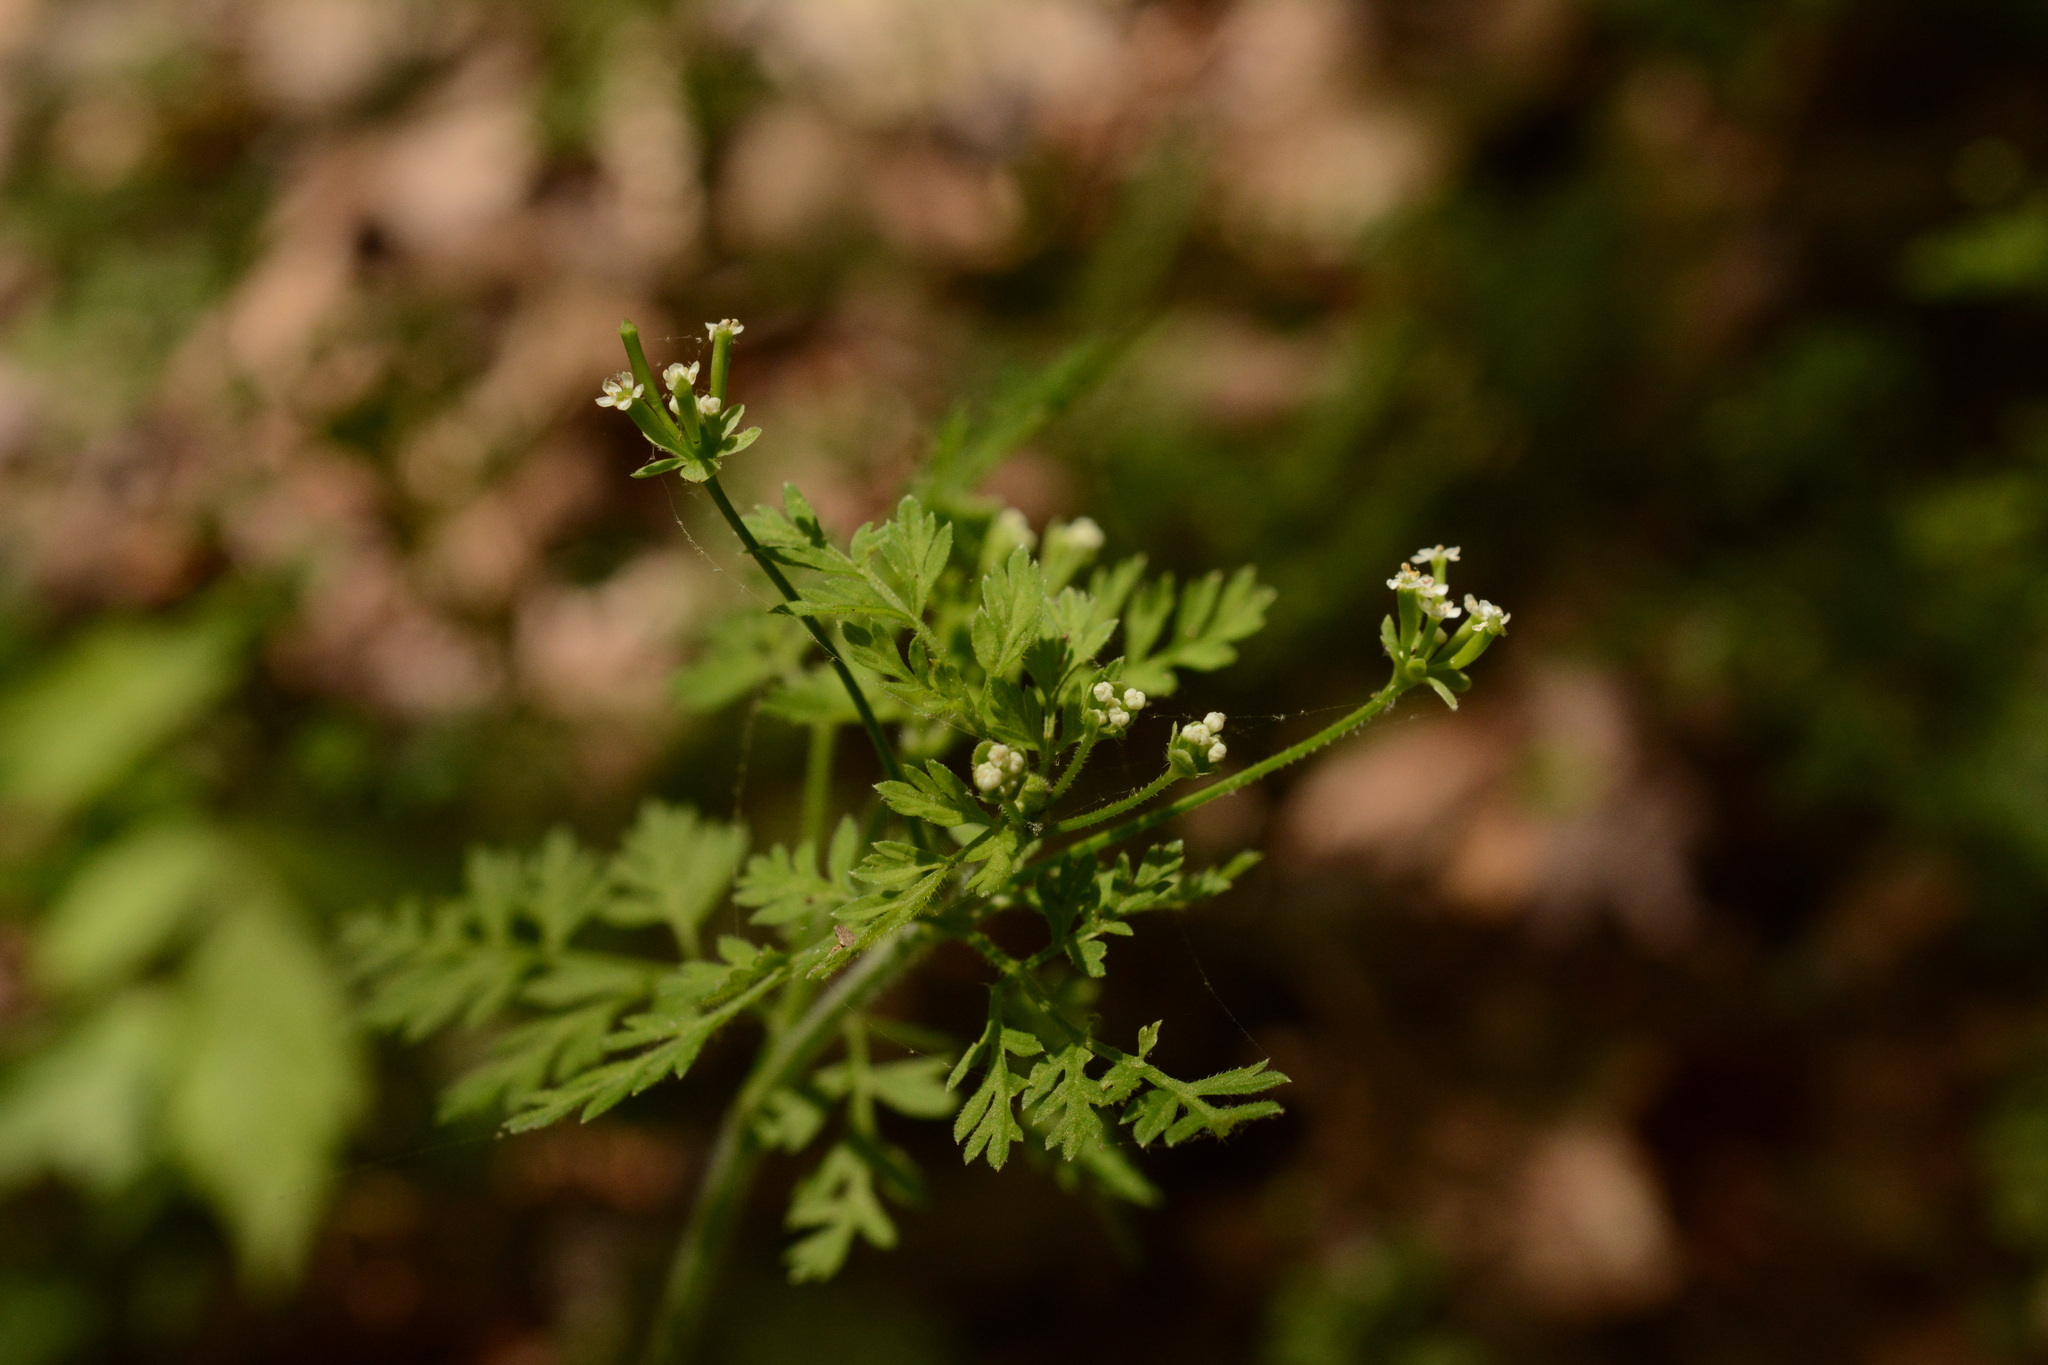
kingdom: Plantae
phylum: Tracheophyta
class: Magnoliopsida
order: Apiales
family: Apiaceae
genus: Chaerophyllum
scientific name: Chaerophyllum tainturieri
